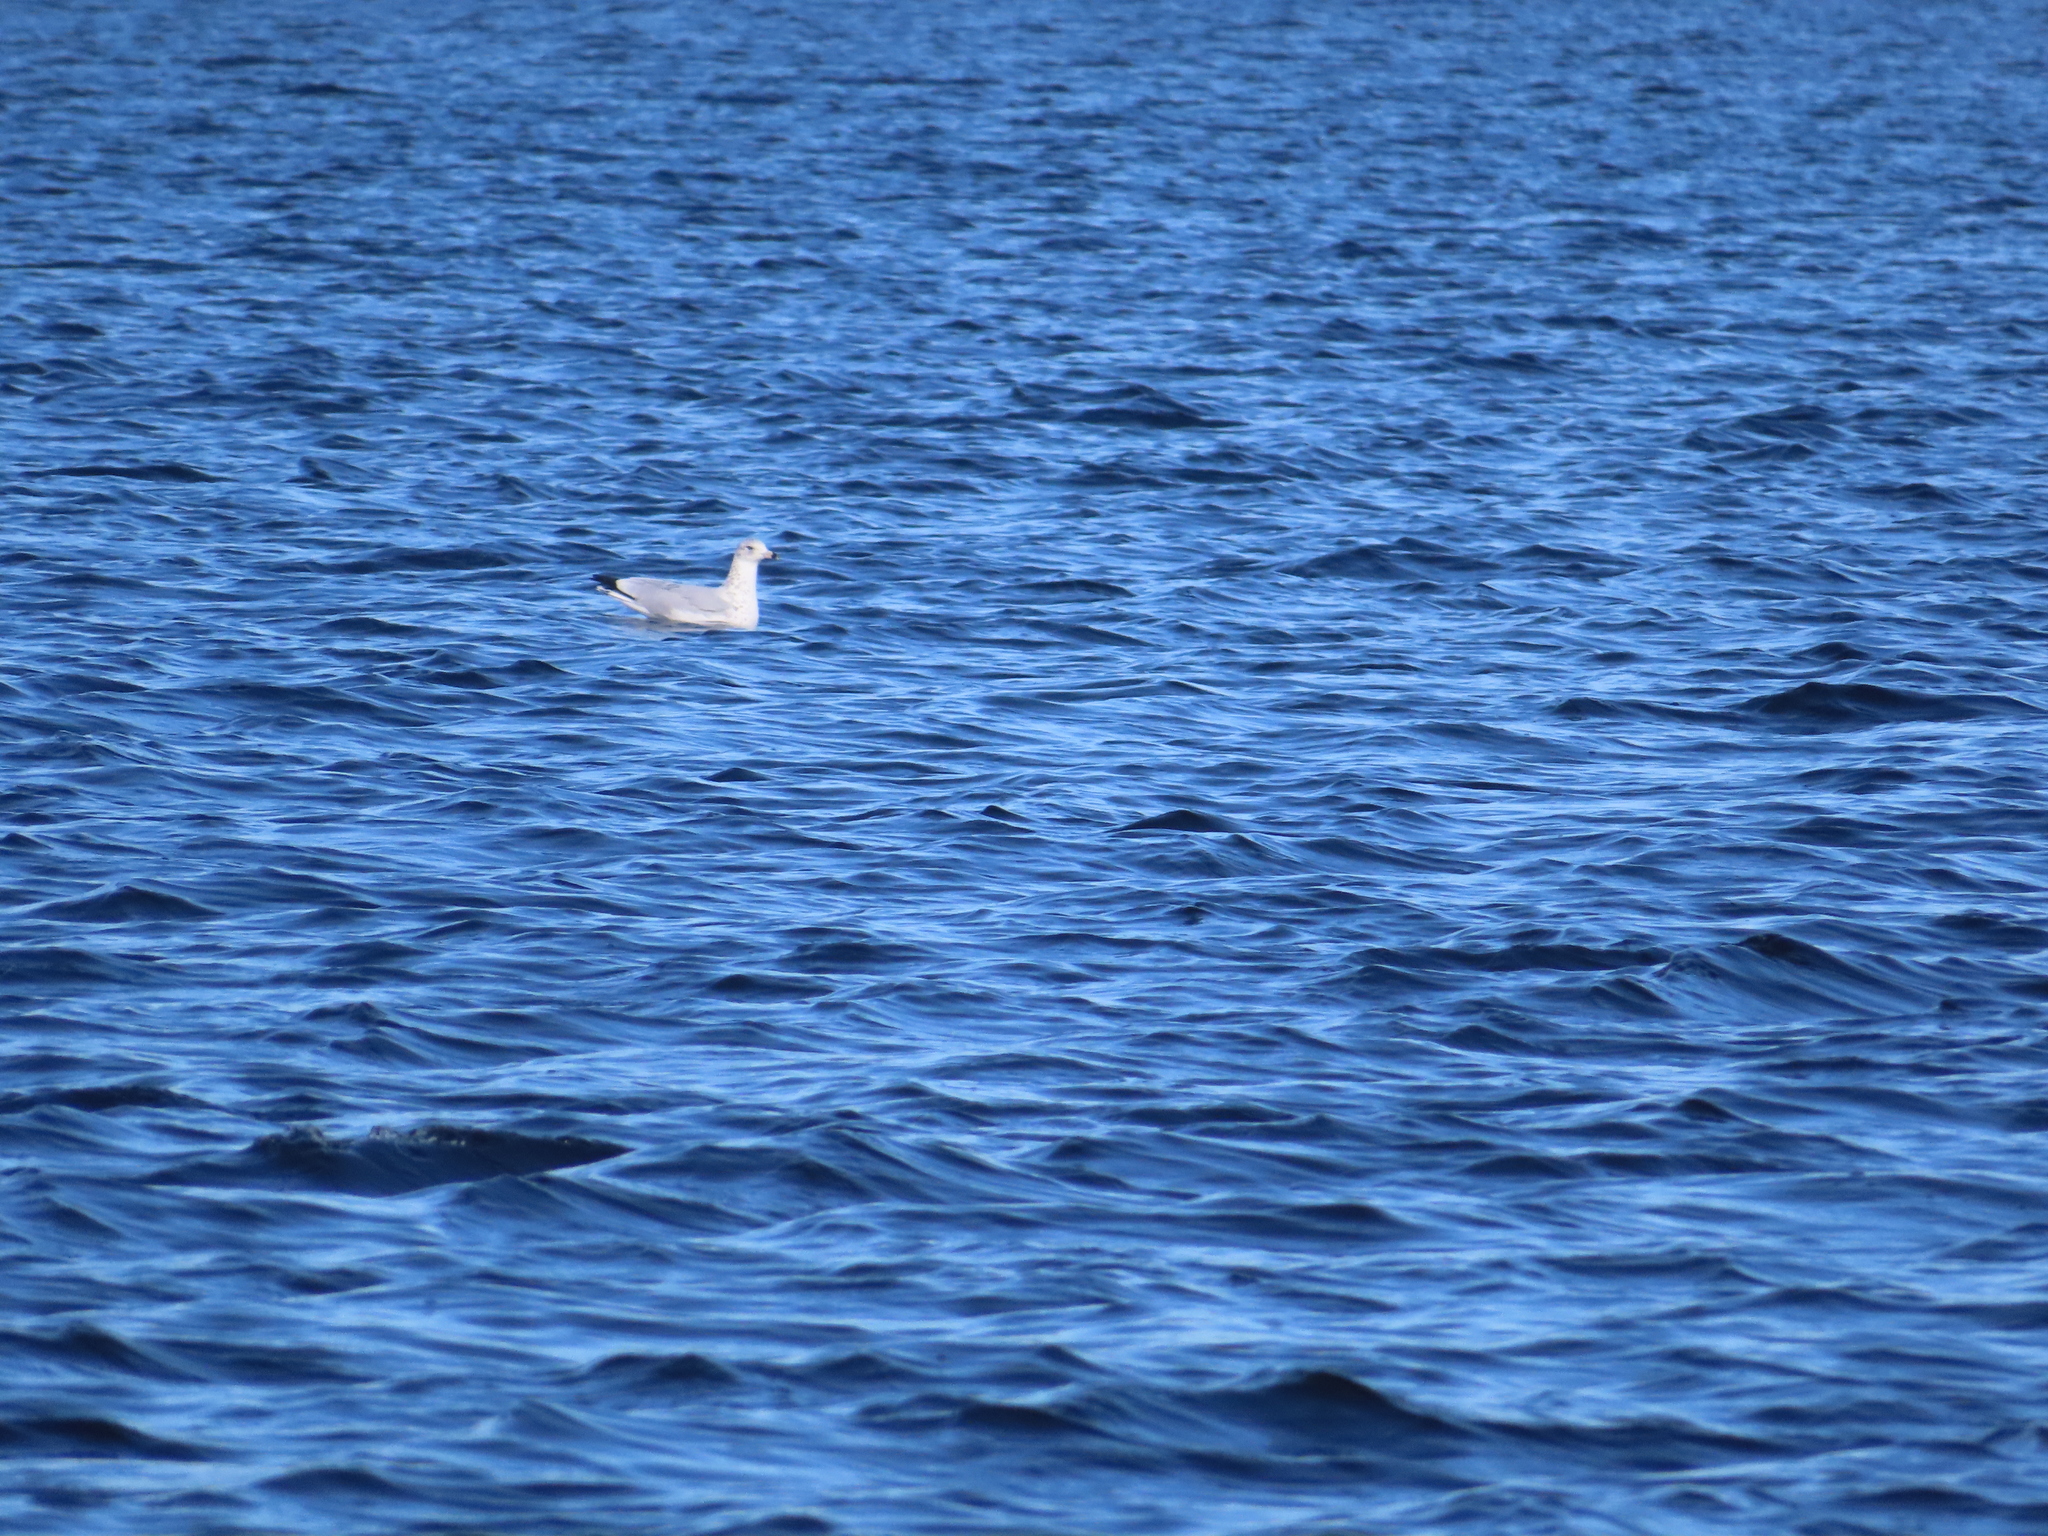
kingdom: Animalia
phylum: Chordata
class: Aves
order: Charadriiformes
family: Laridae
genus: Larus
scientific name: Larus delawarensis
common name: Ring-billed gull
